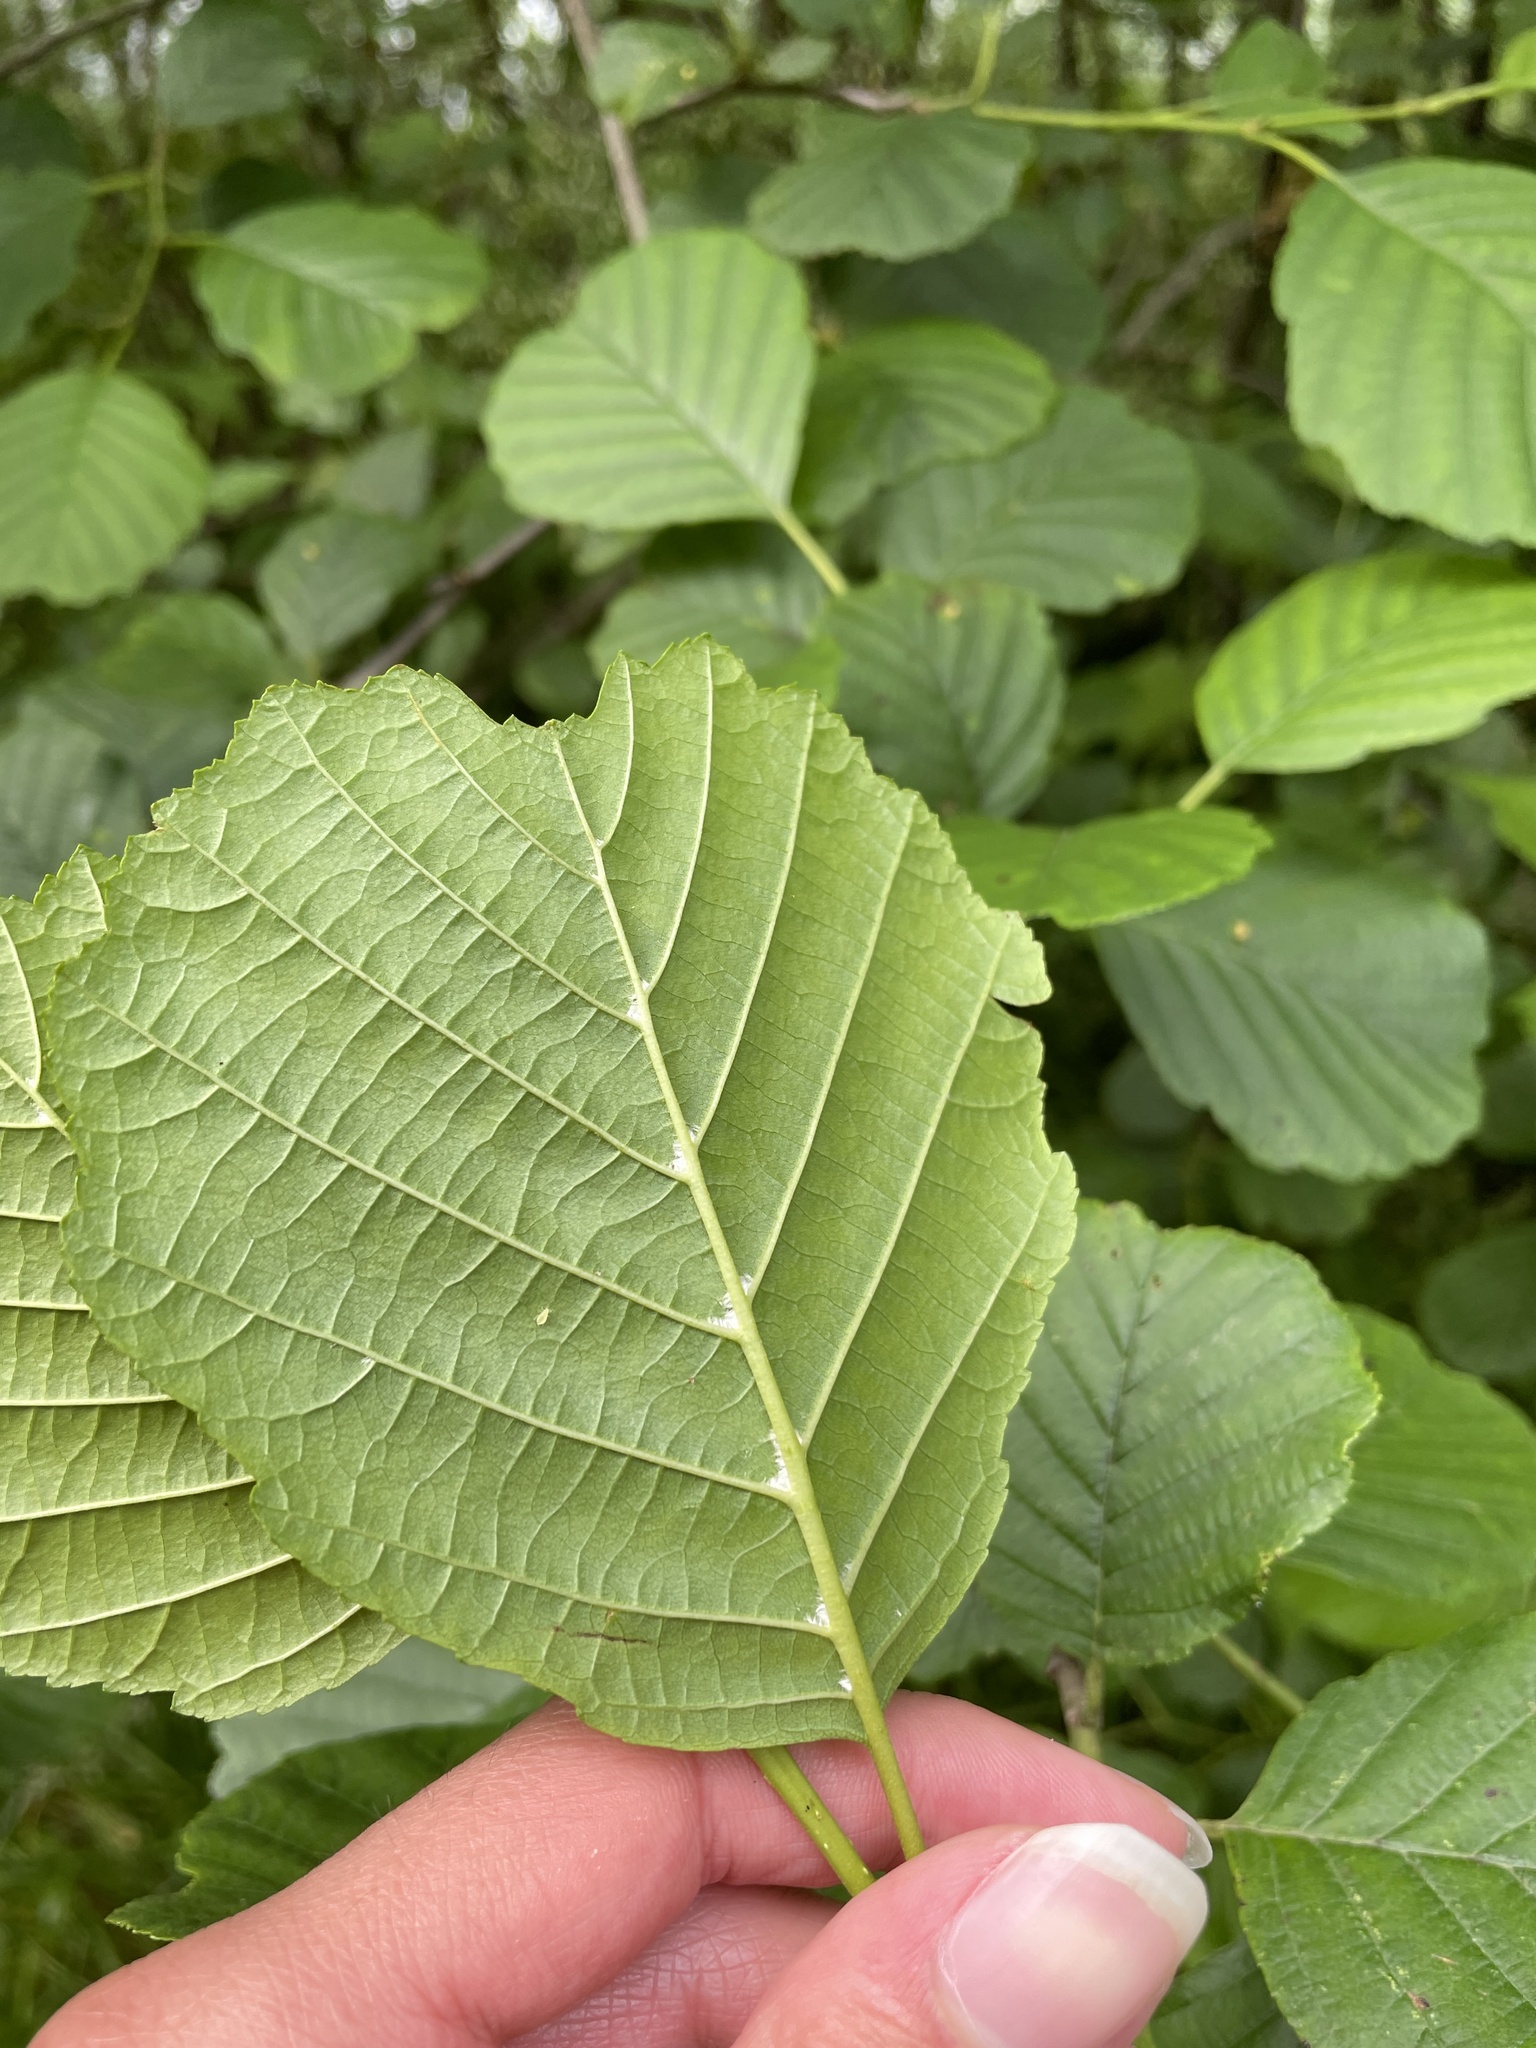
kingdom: Plantae
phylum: Tracheophyta
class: Magnoliopsida
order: Fagales
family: Betulaceae
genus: Alnus
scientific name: Alnus glutinosa
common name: Black alder
